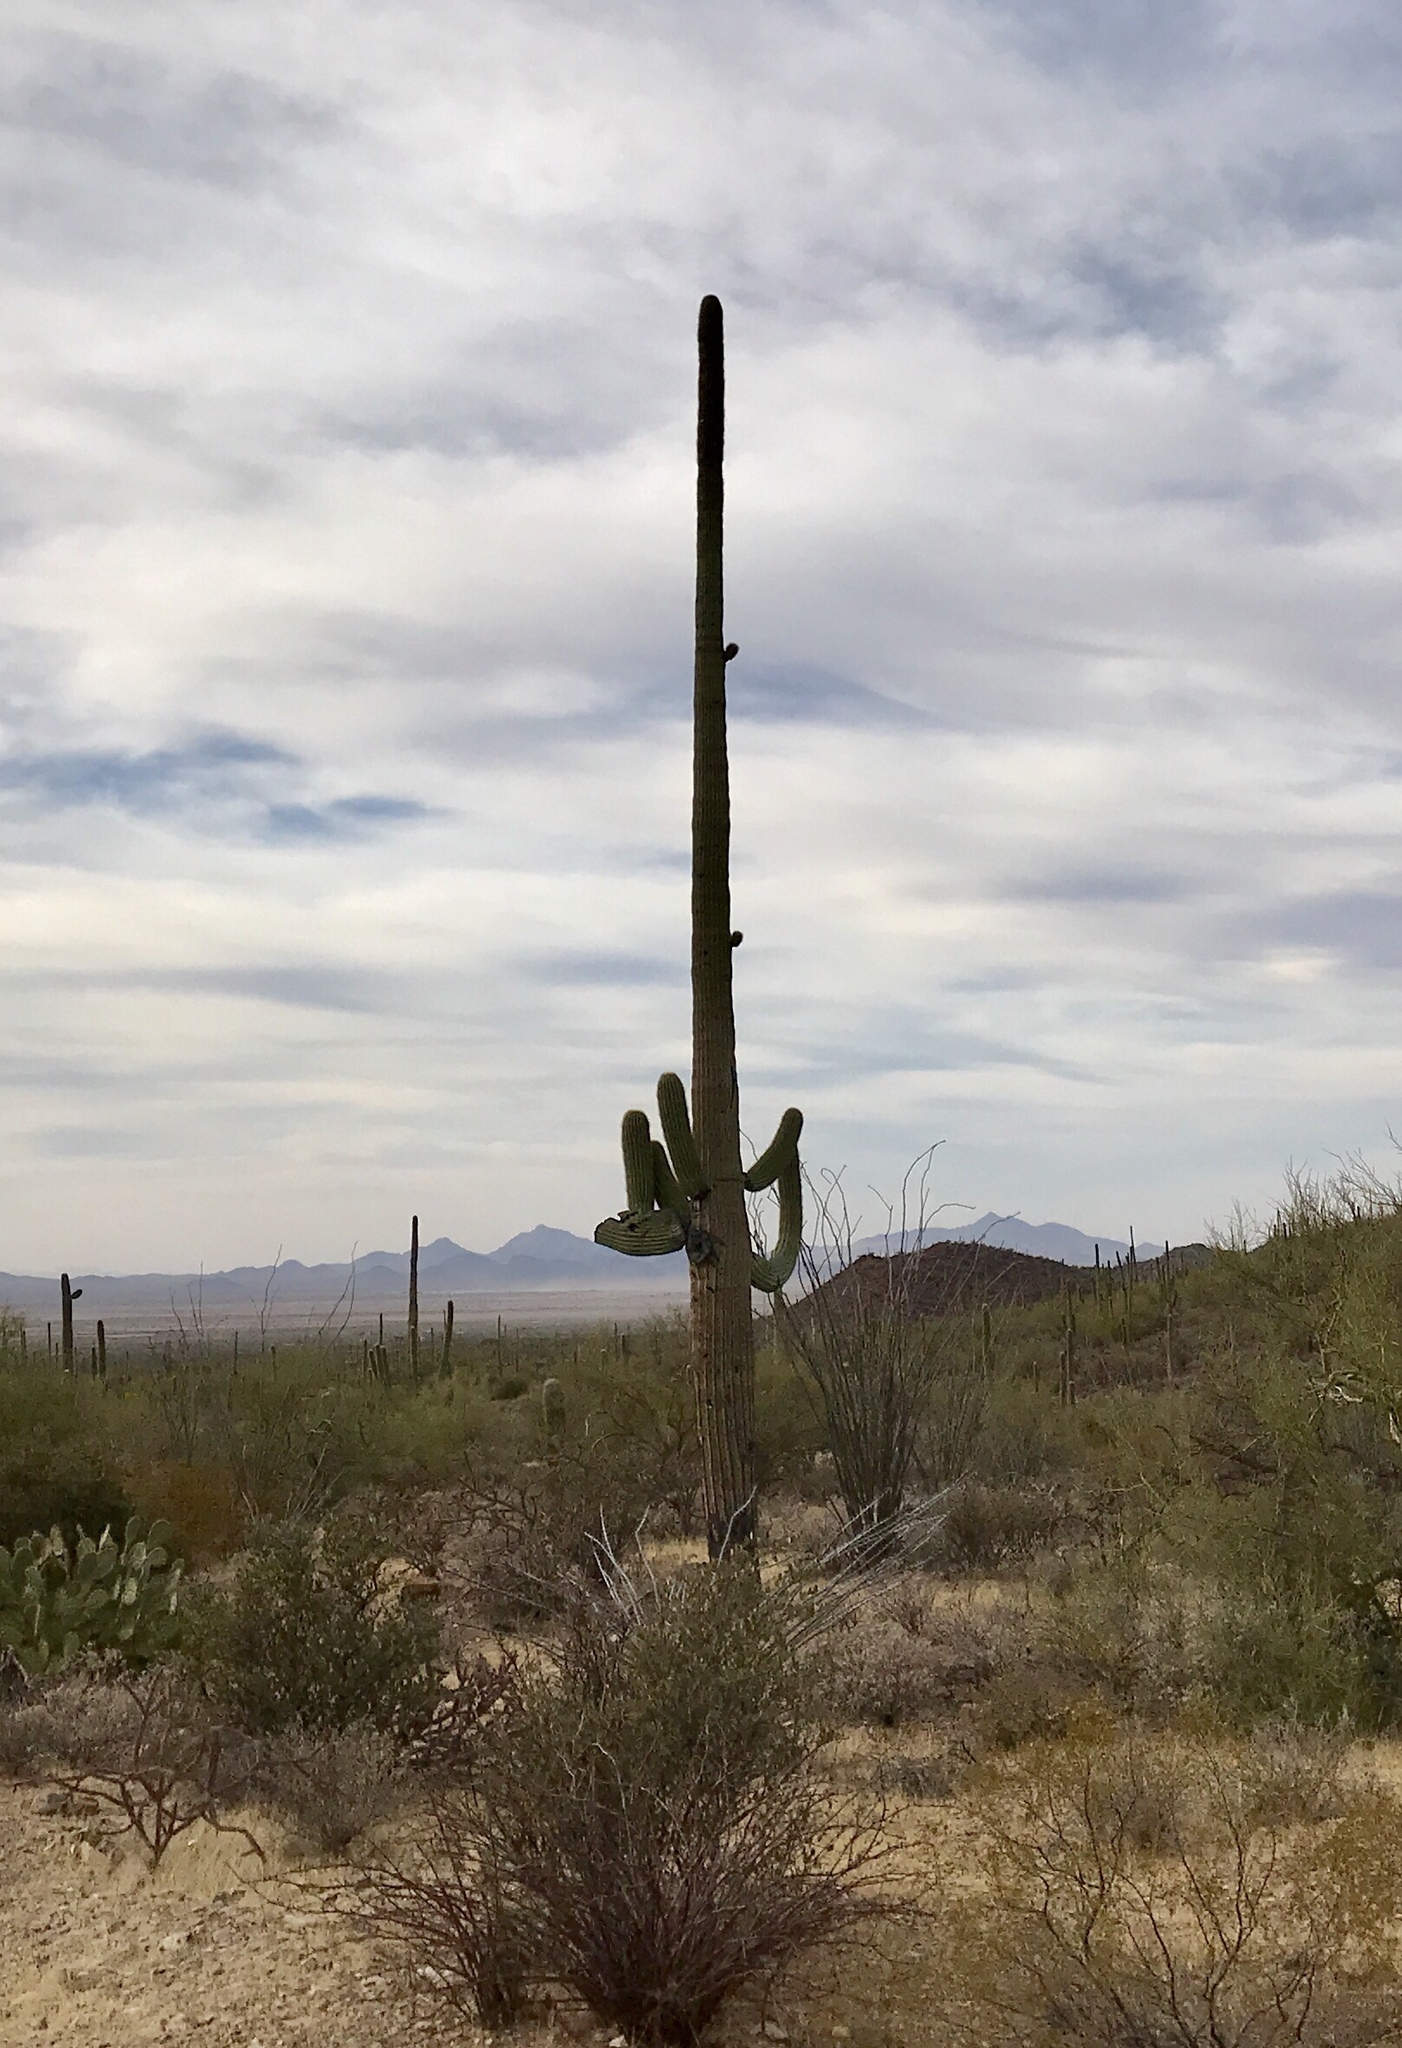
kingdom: Plantae
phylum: Tracheophyta
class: Magnoliopsida
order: Caryophyllales
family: Cactaceae
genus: Carnegiea
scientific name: Carnegiea gigantea
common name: Saguaro
